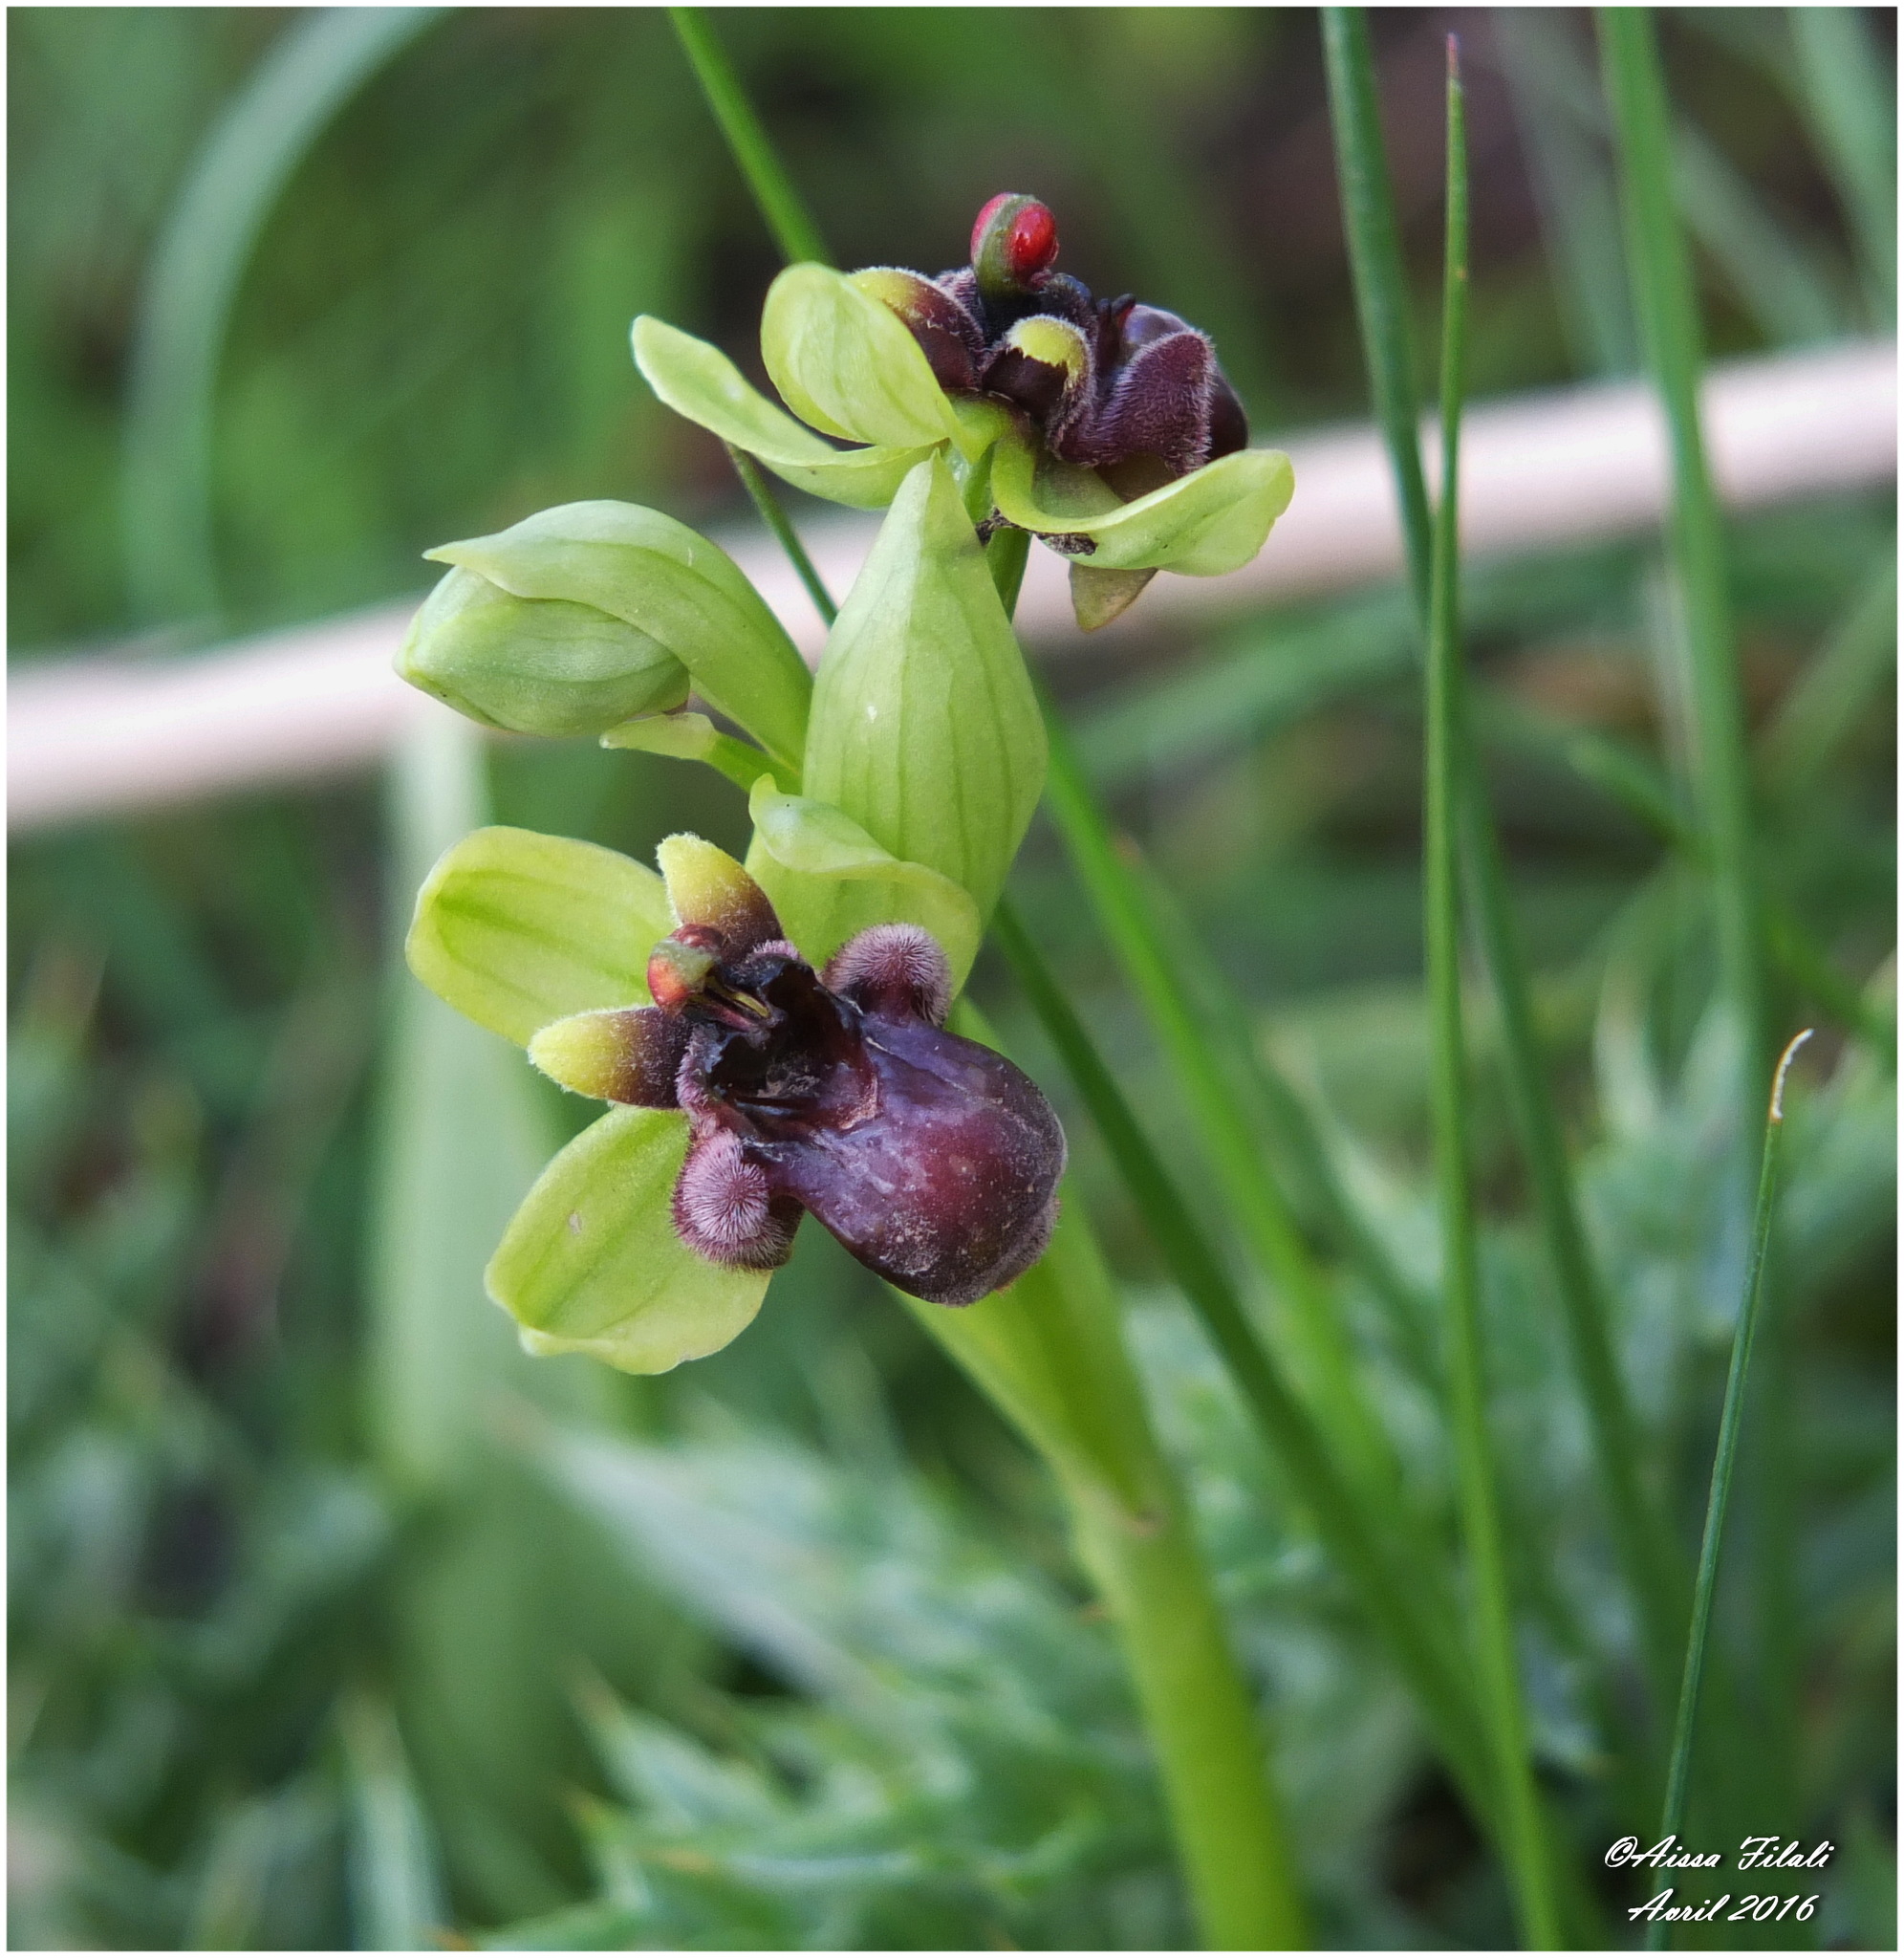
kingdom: Plantae
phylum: Tracheophyta
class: Liliopsida
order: Asparagales
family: Orchidaceae
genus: Ophrys
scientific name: Ophrys bombyliflora
